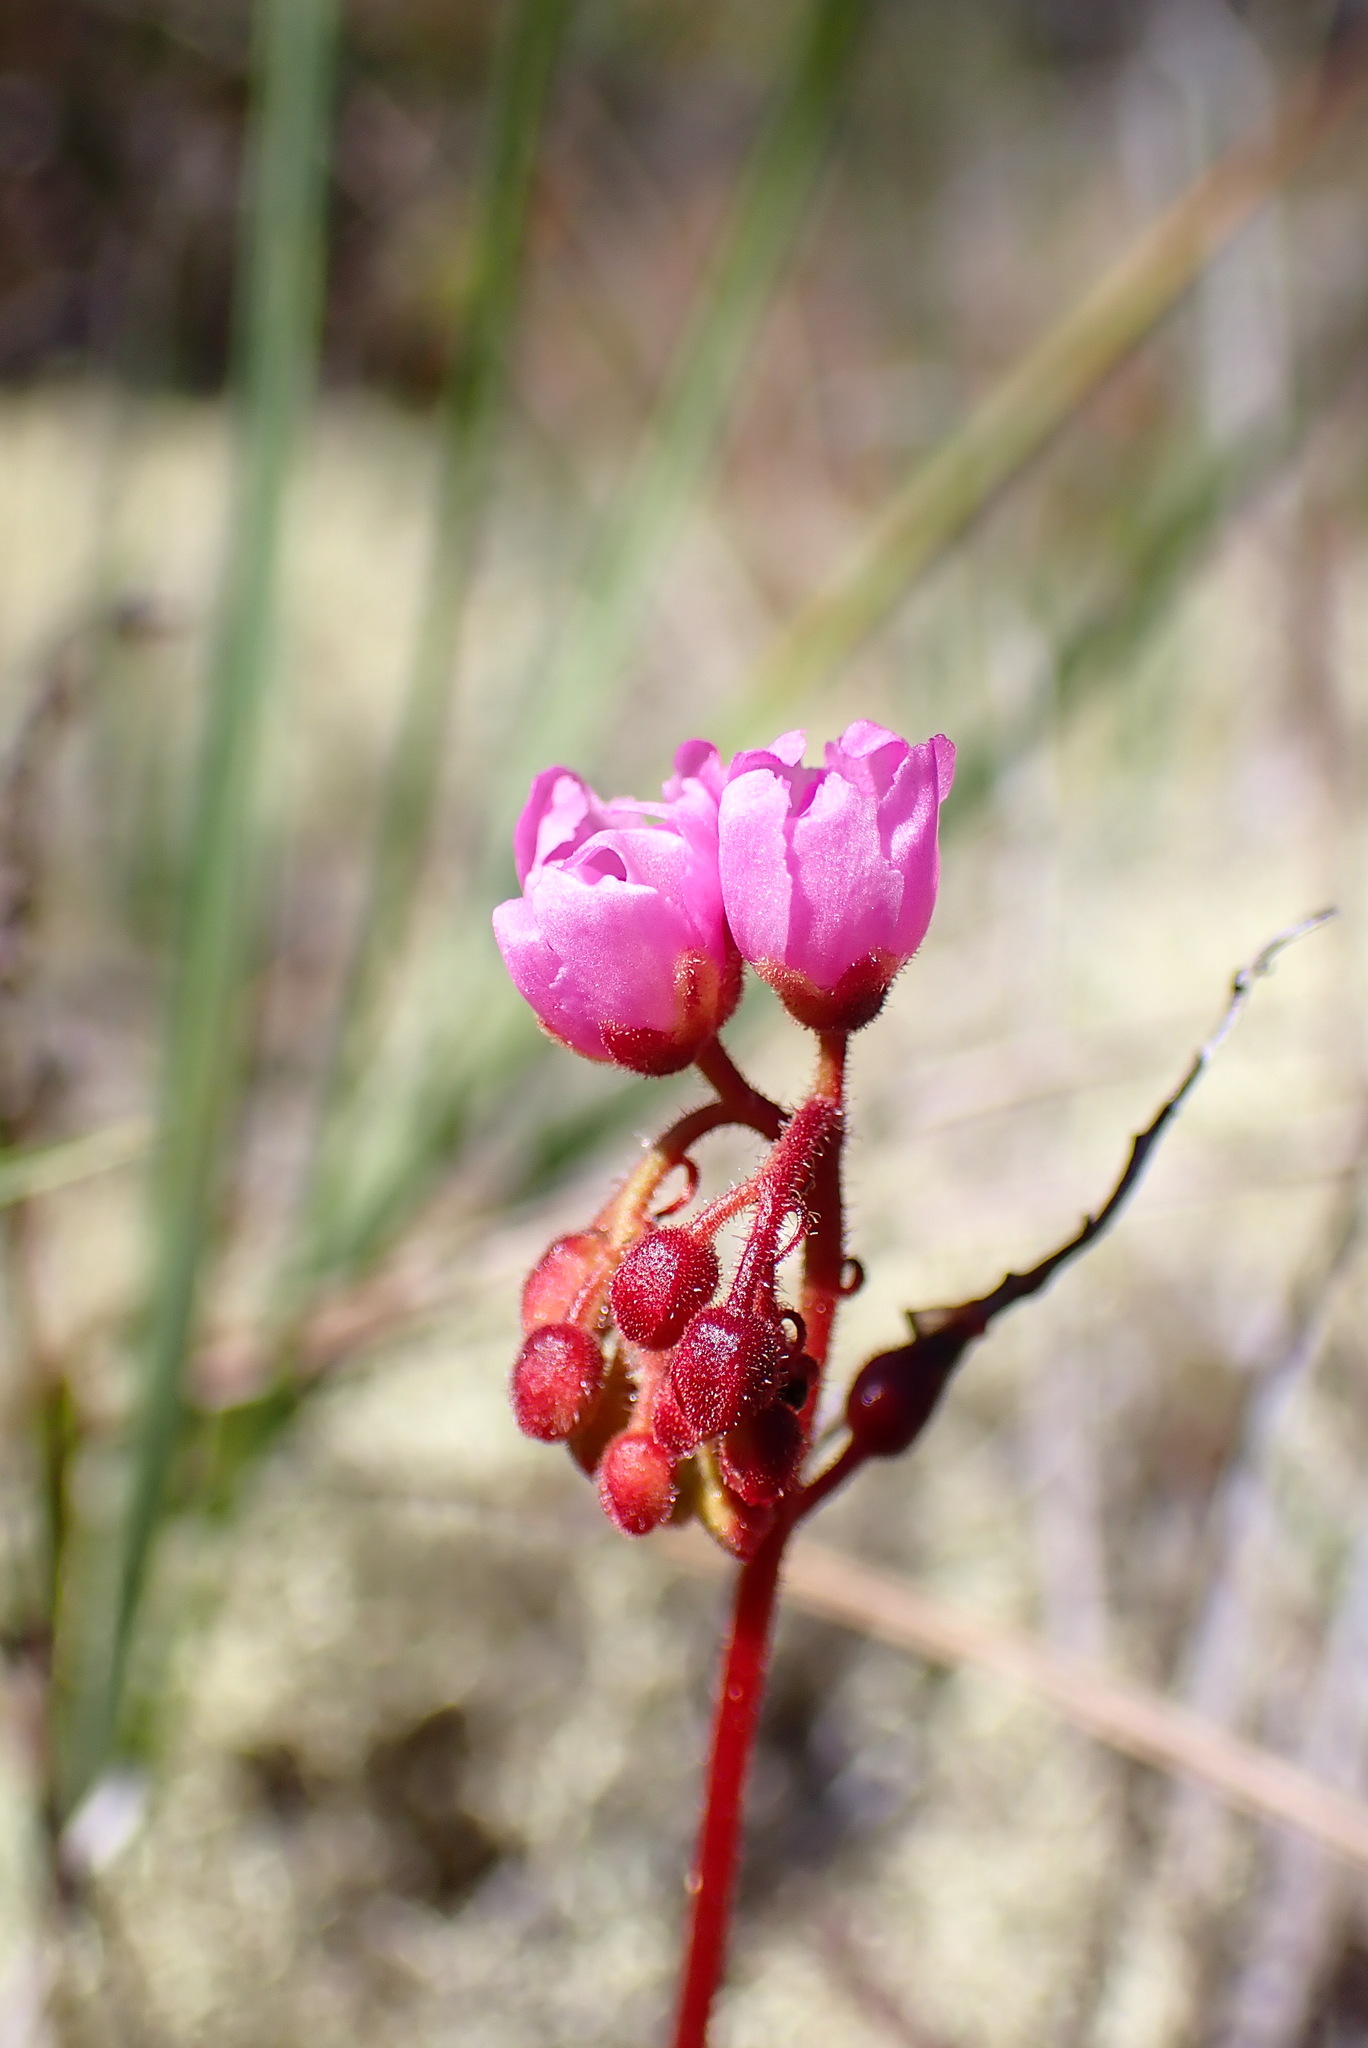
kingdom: Plantae
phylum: Tracheophyta
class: Magnoliopsida
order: Caryophyllales
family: Droseraceae
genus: Drosera
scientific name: Drosera capensis
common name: Cape sundew
